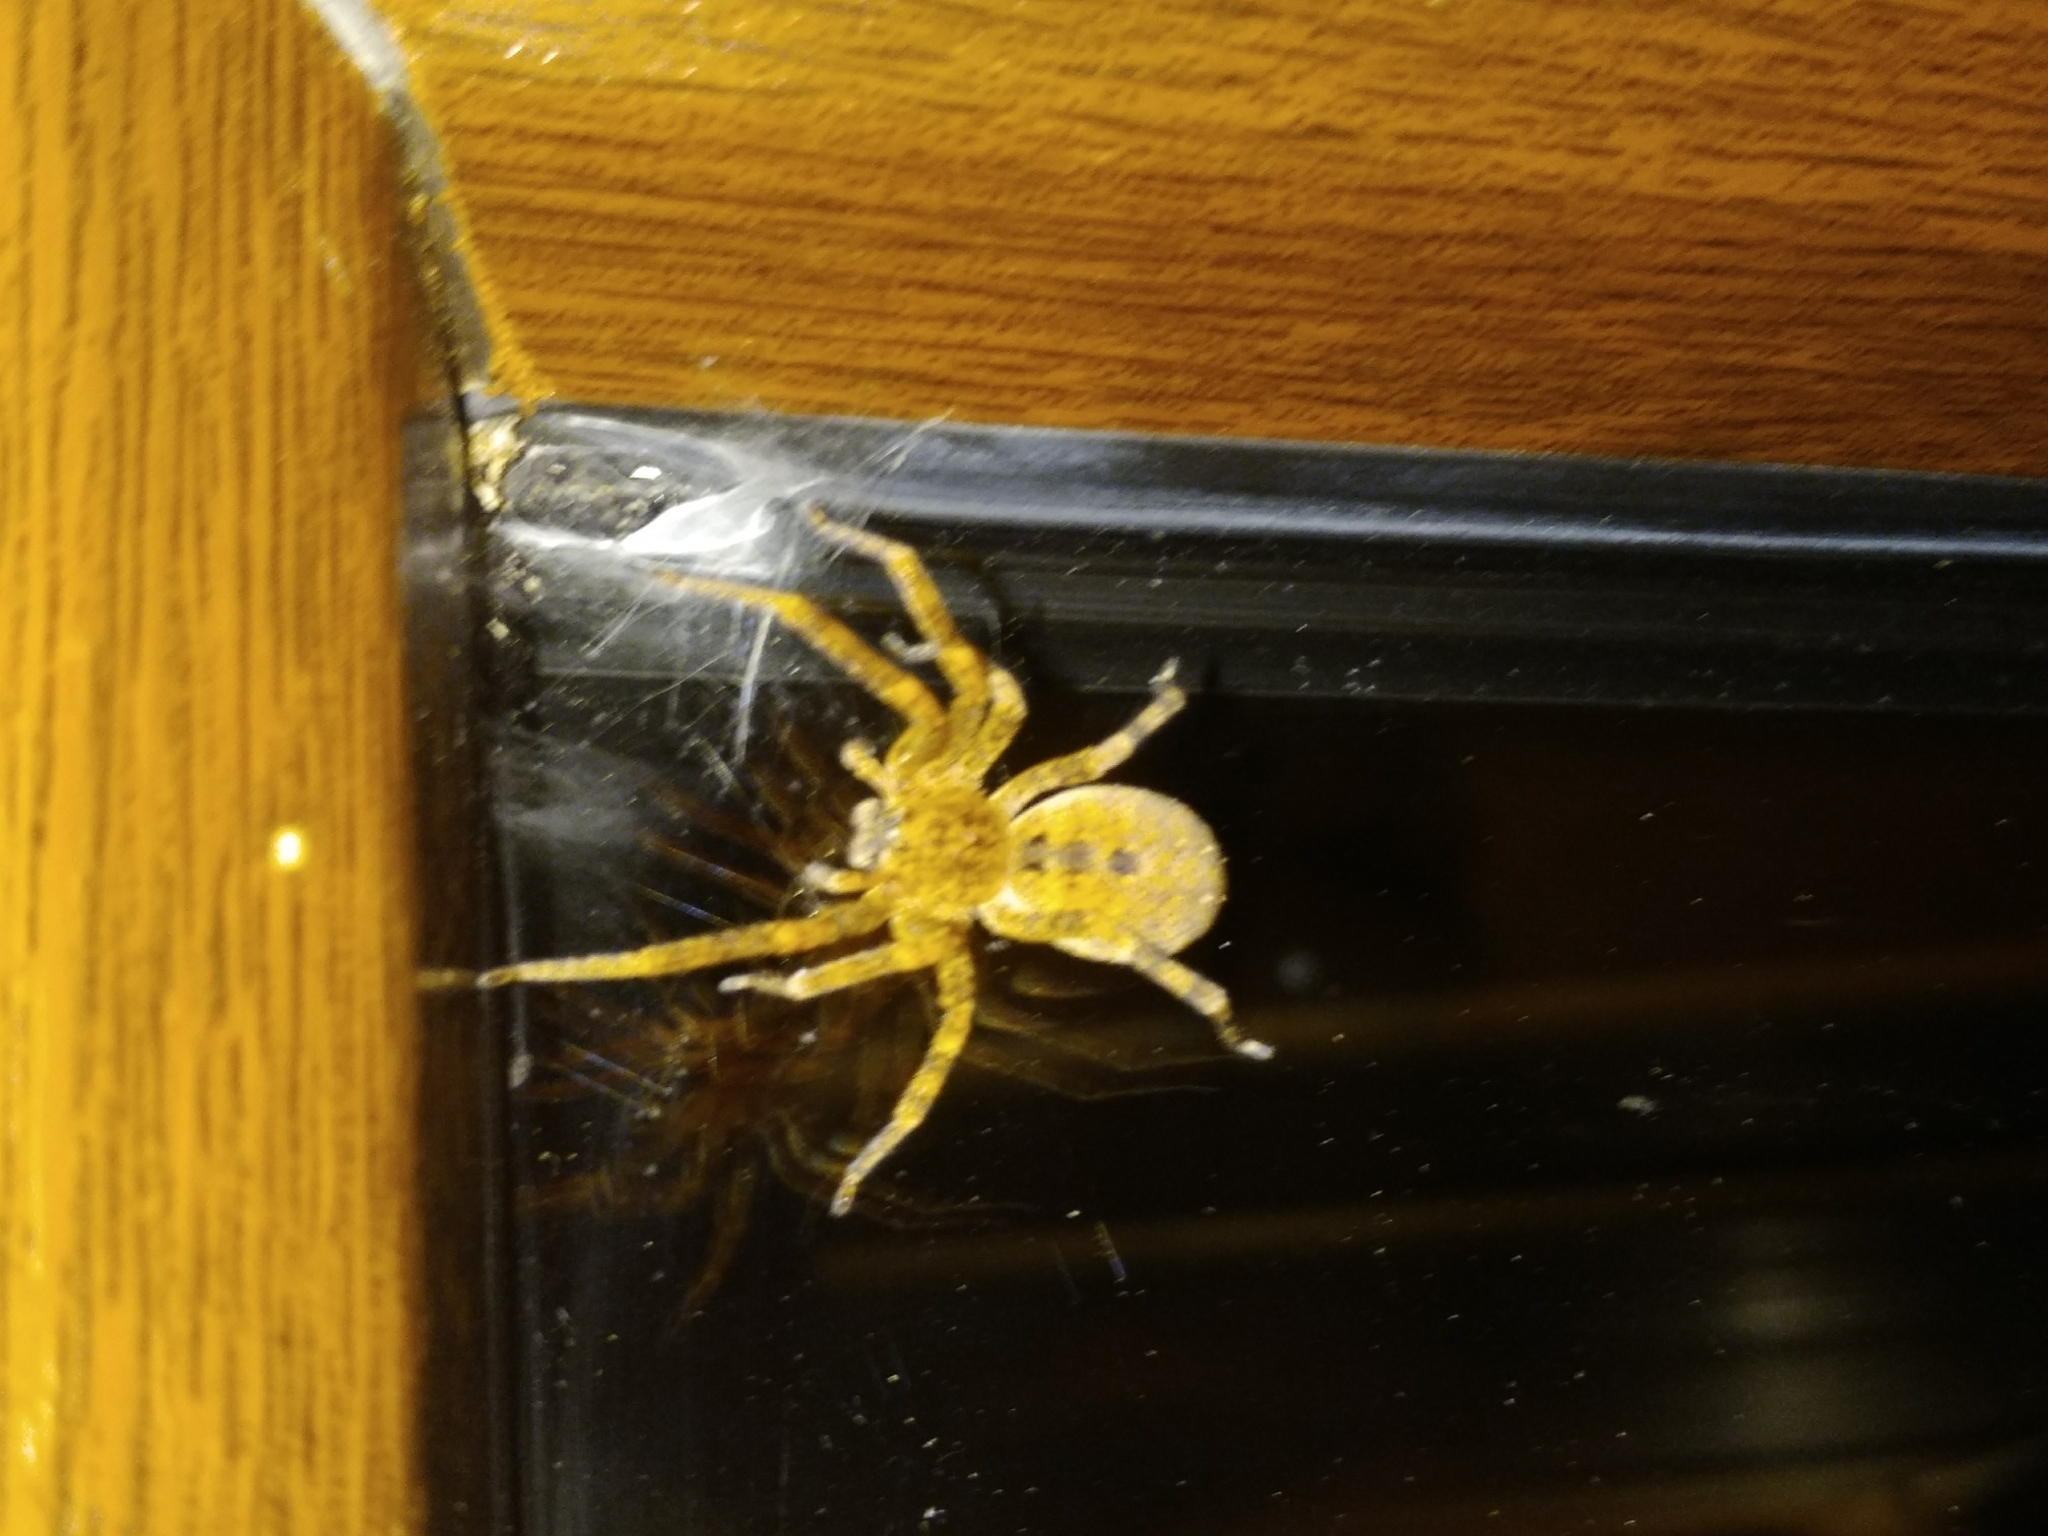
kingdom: Animalia
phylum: Arthropoda
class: Arachnida
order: Araneae
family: Zoropsidae
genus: Zoropsis
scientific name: Zoropsis lutea
